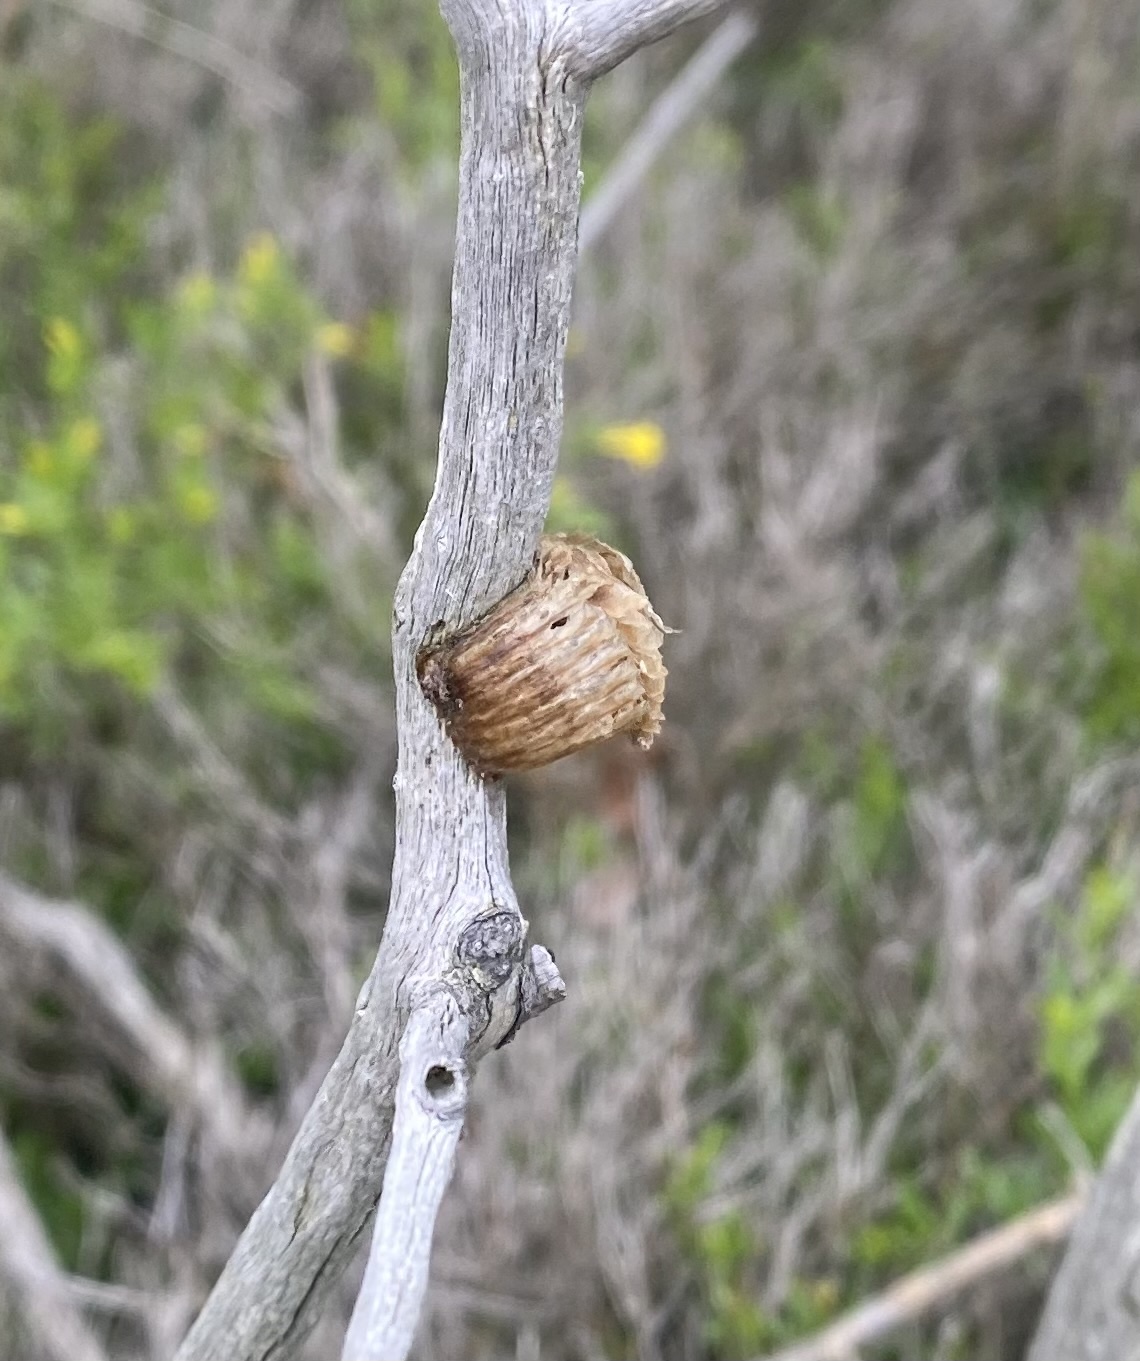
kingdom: Animalia
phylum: Arthropoda
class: Insecta
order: Mantodea
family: Mantidae
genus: Hierodula
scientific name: Hierodula transcaucasica
